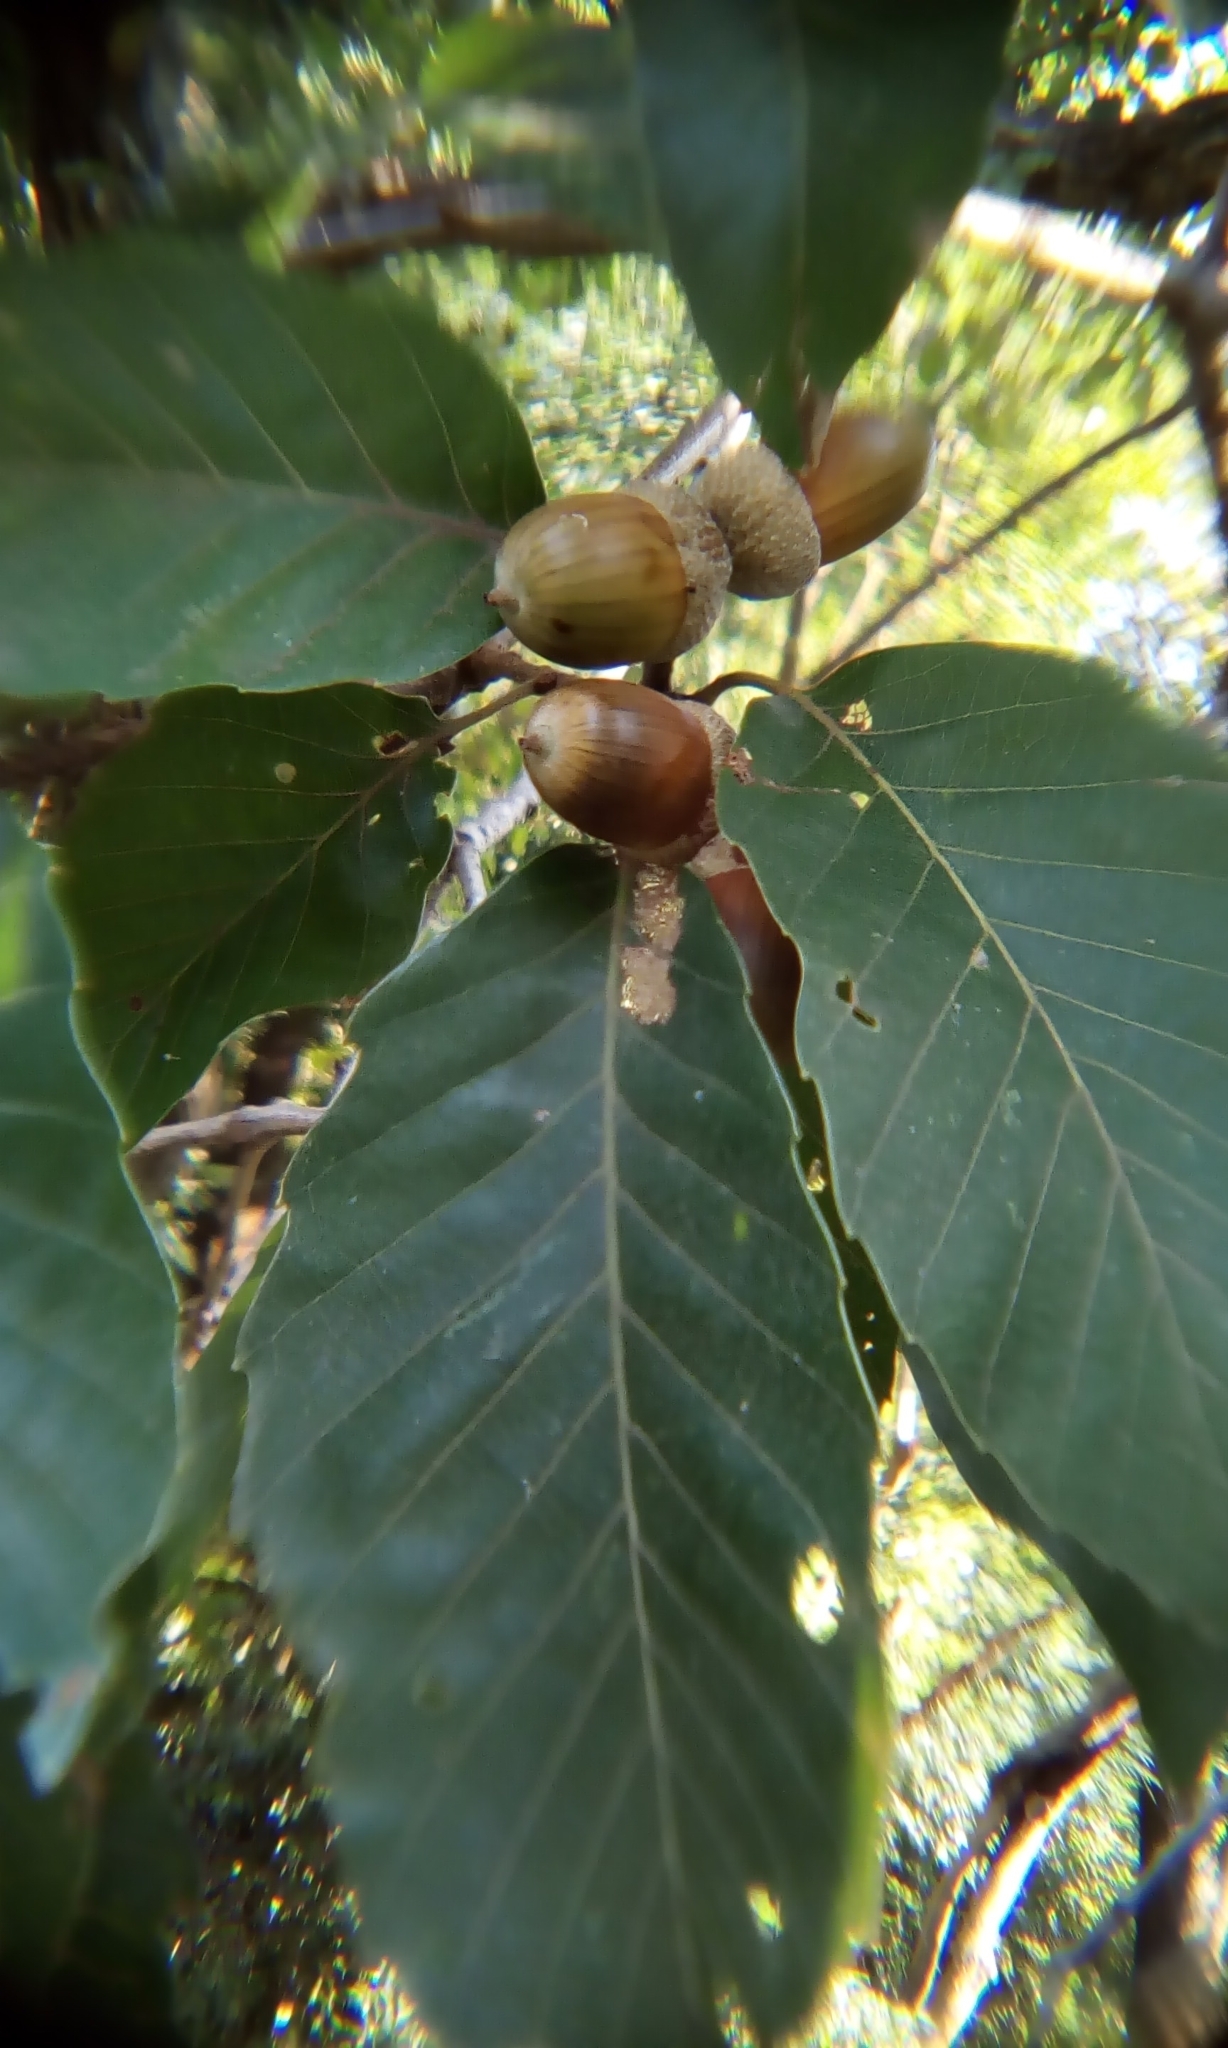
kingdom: Plantae
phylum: Tracheophyta
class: Magnoliopsida
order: Fagales
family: Fagaceae
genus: Quercus
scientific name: Quercus serrata
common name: Bao li
